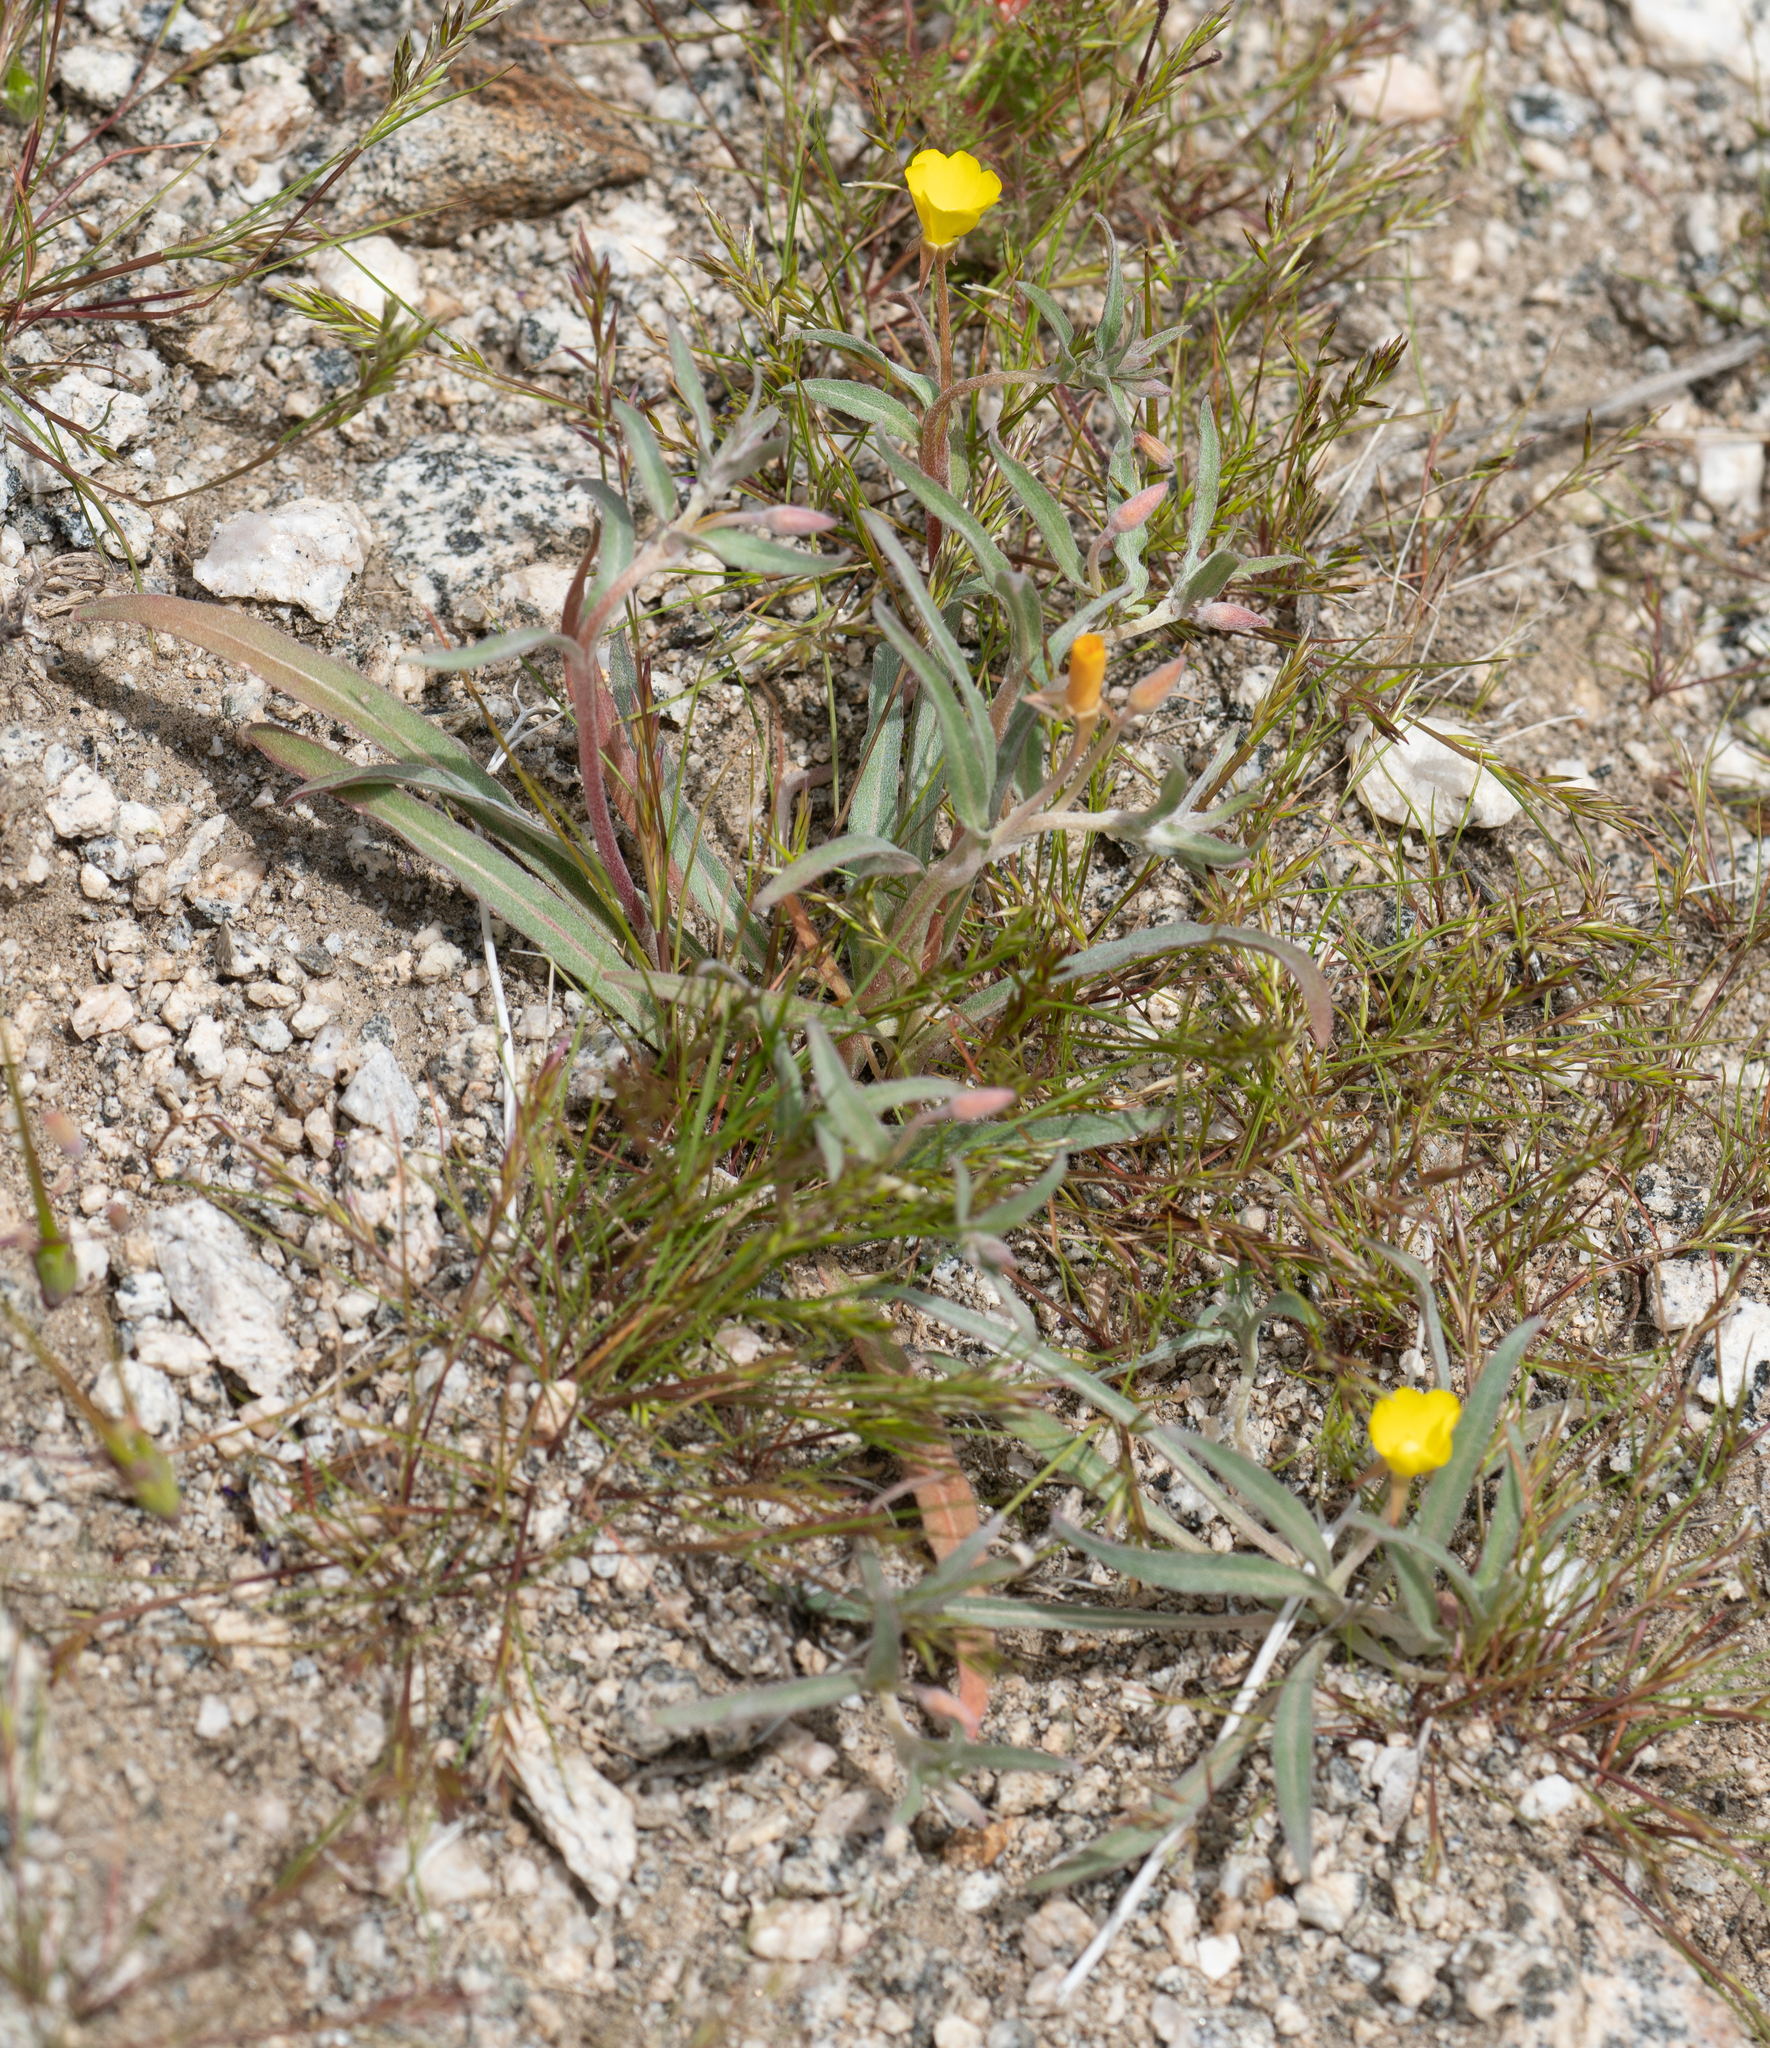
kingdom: Plantae
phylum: Tracheophyta
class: Magnoliopsida
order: Myrtales
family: Onagraceae
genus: Camissoniopsis
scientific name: Camissoniopsis pallida
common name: Paleyellow suncup
